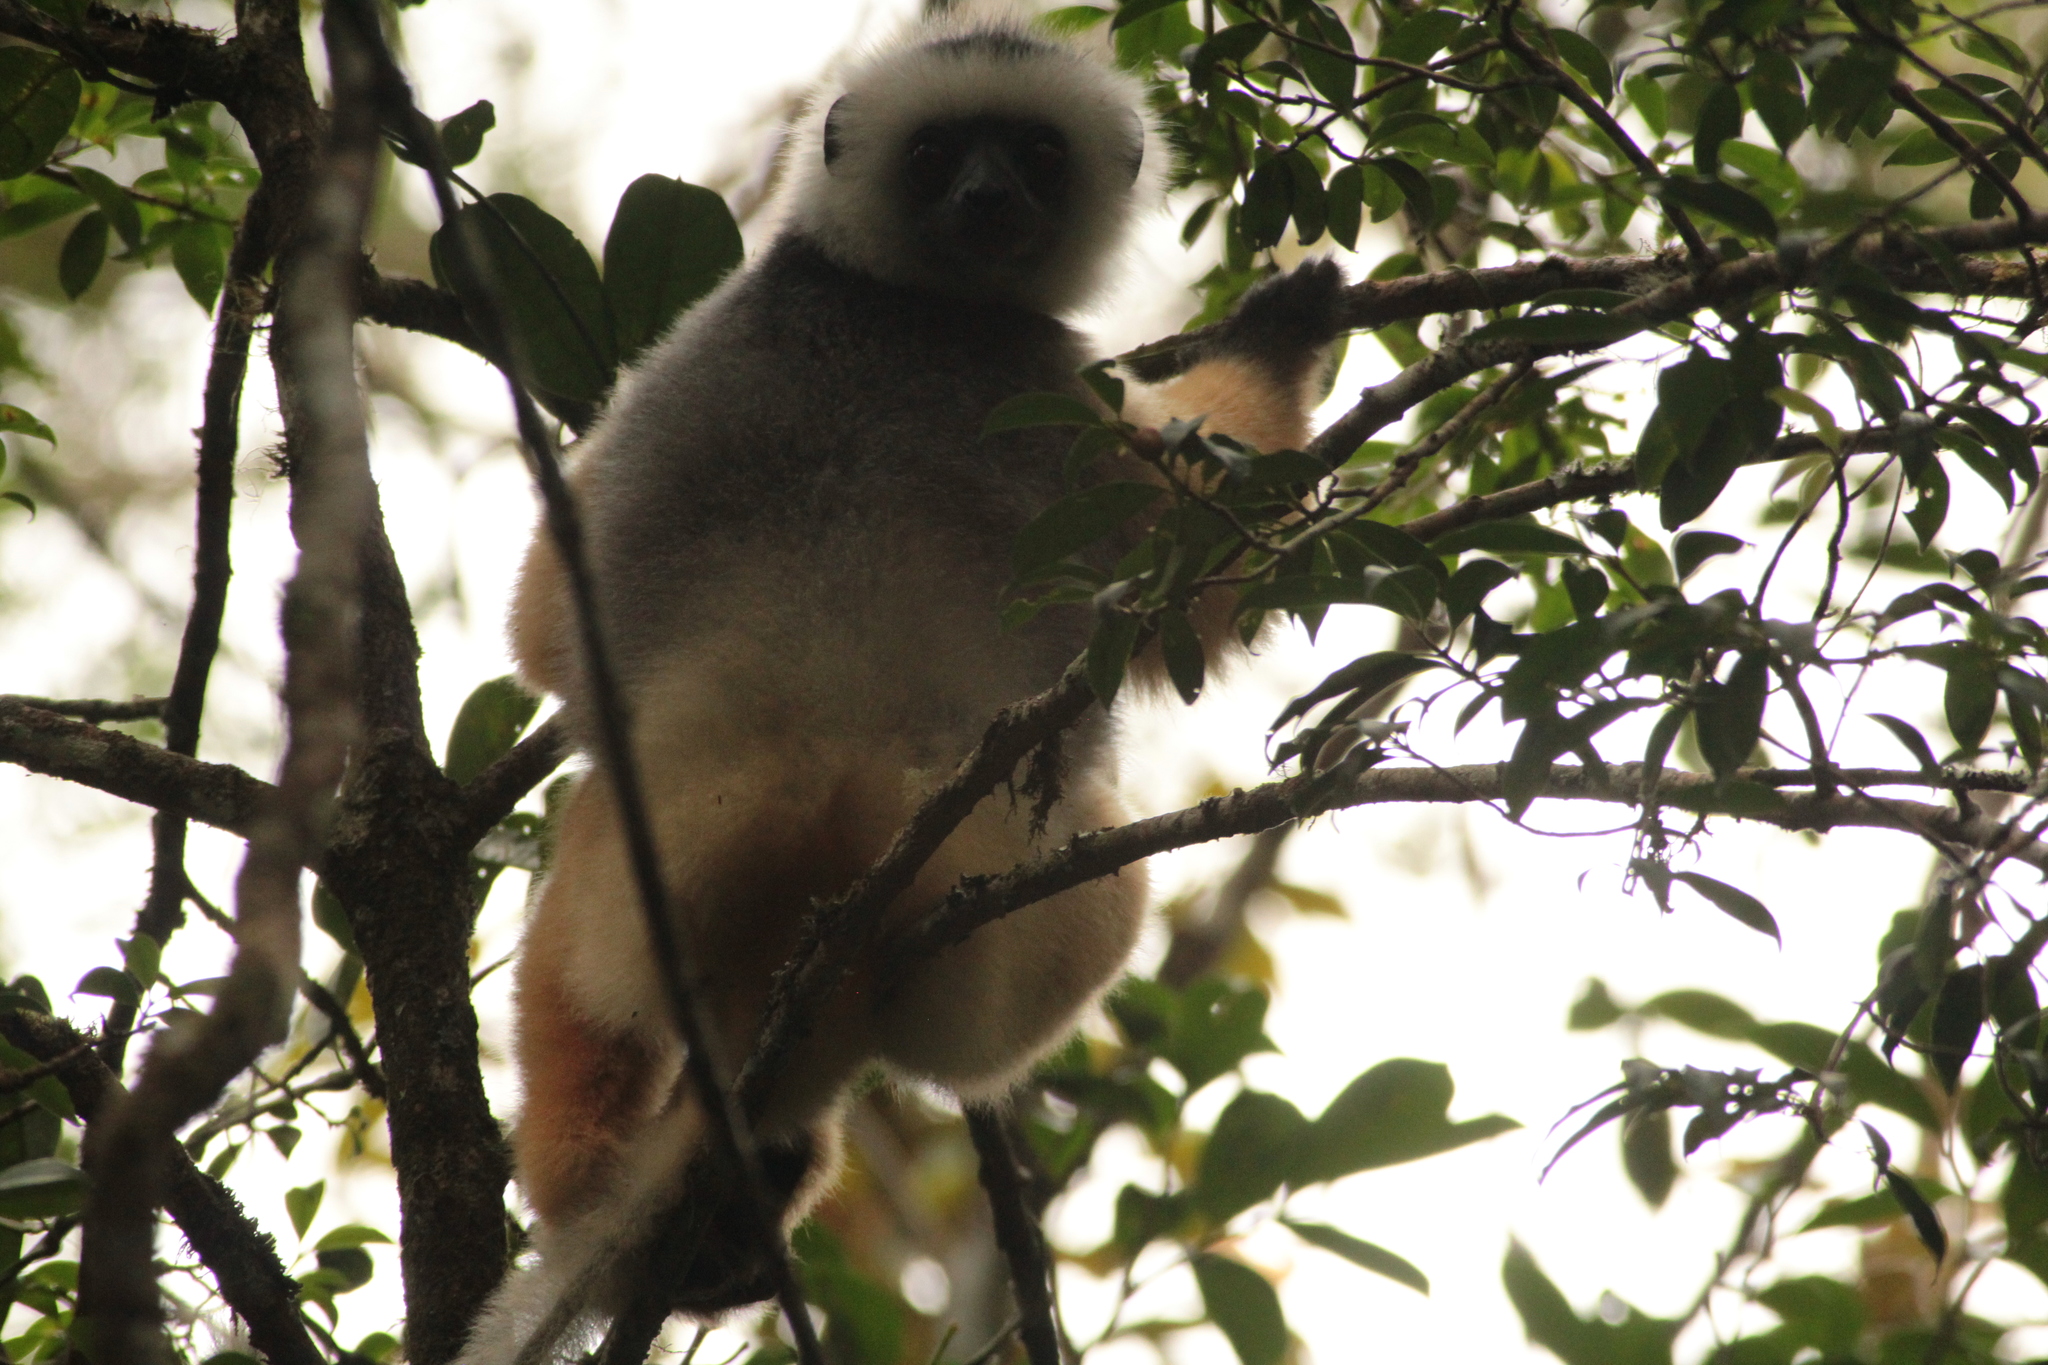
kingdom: Animalia
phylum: Chordata
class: Mammalia
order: Primates
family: Indriidae
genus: Propithecus
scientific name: Propithecus diadema
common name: Diademed sifaka
